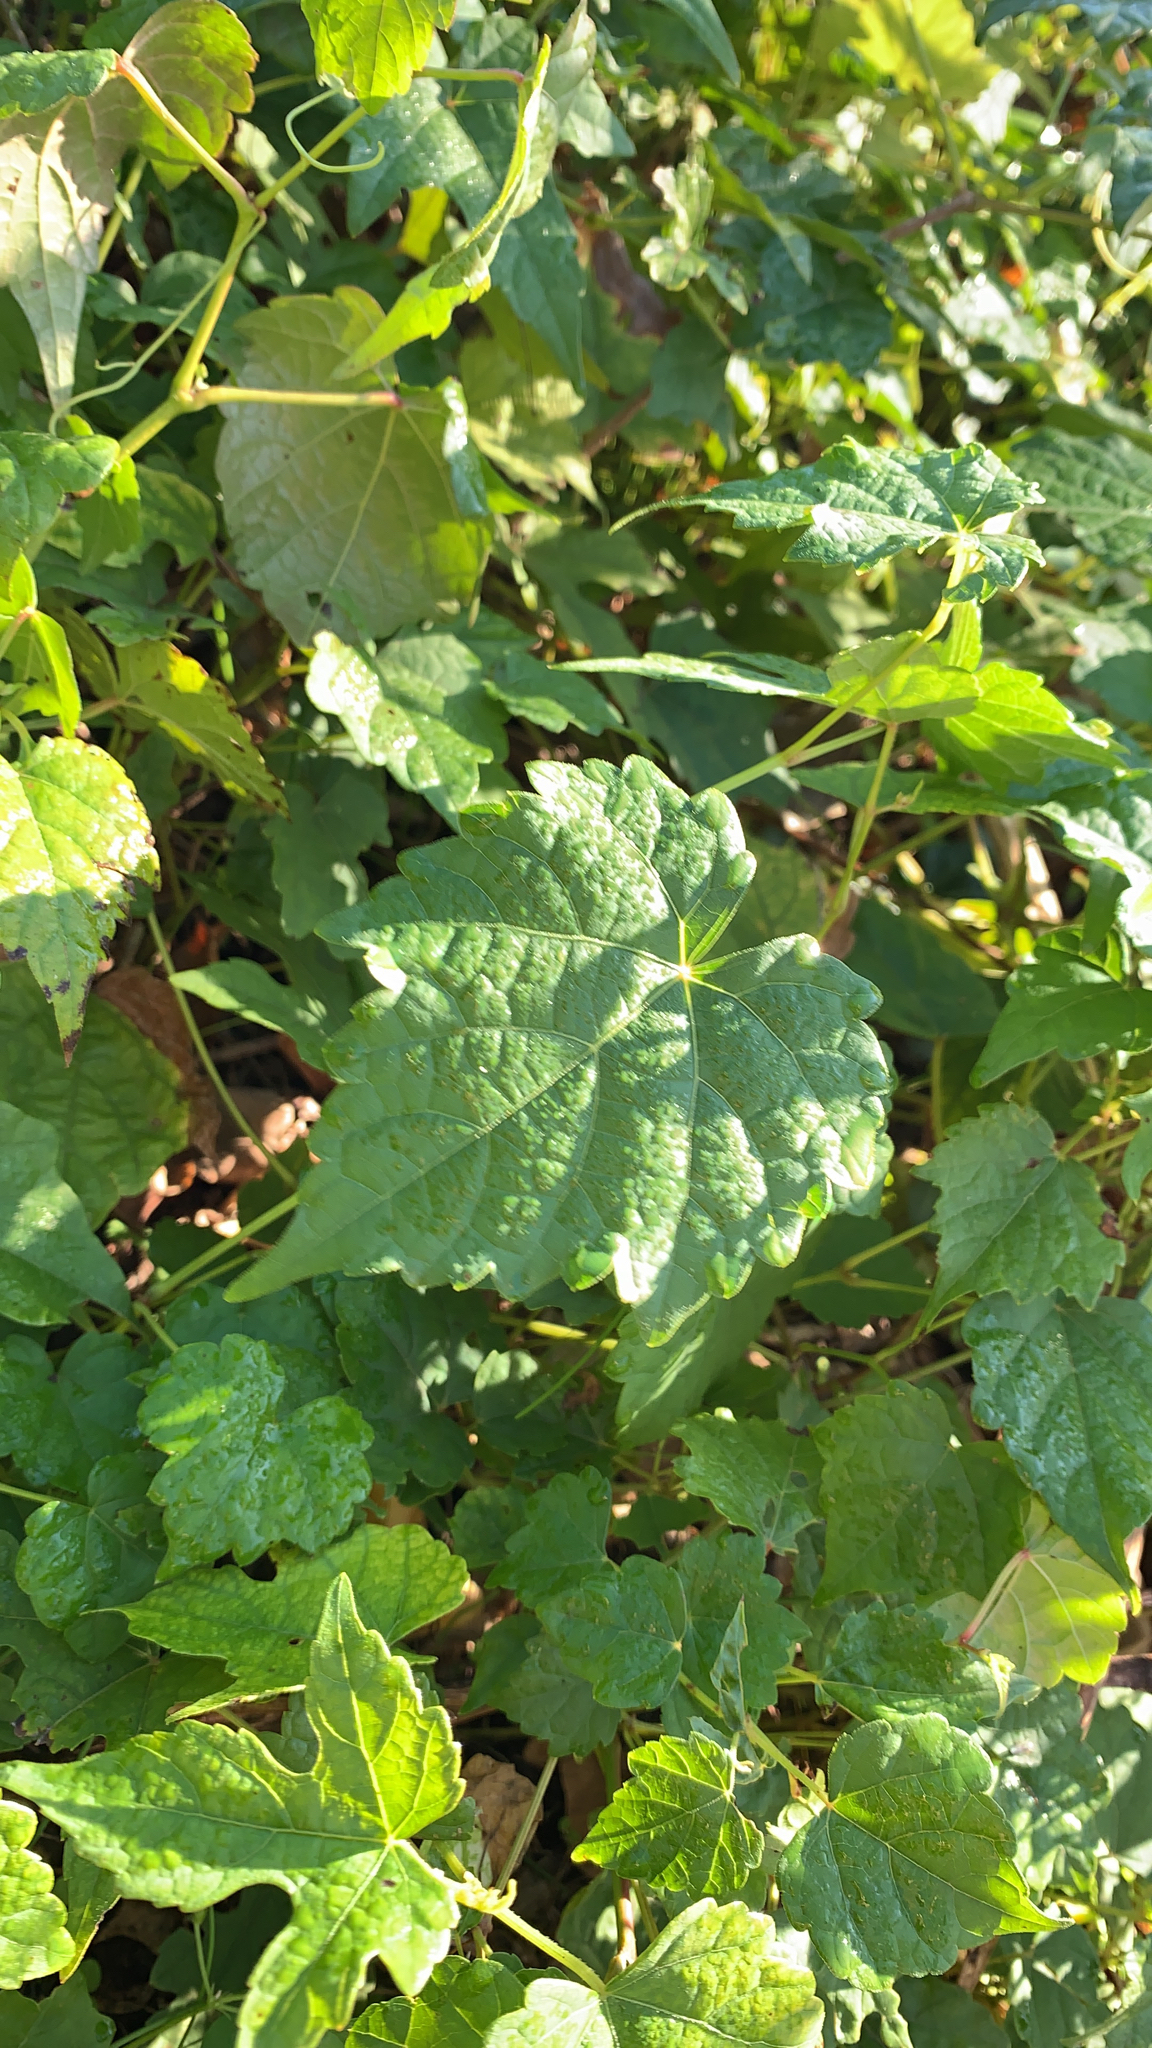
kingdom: Plantae
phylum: Tracheophyta
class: Magnoliopsida
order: Vitales
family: Vitaceae
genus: Ampelopsis
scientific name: Ampelopsis glandulosa
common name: Amur peppervine
